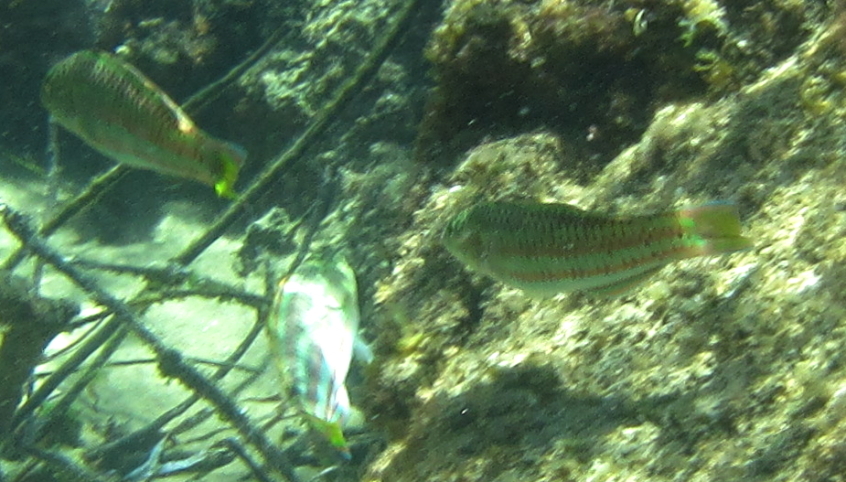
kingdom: Animalia
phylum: Chordata
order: Perciformes
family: Labridae
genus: Thalassoma
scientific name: Thalassoma purpureum
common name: Parrotfish
